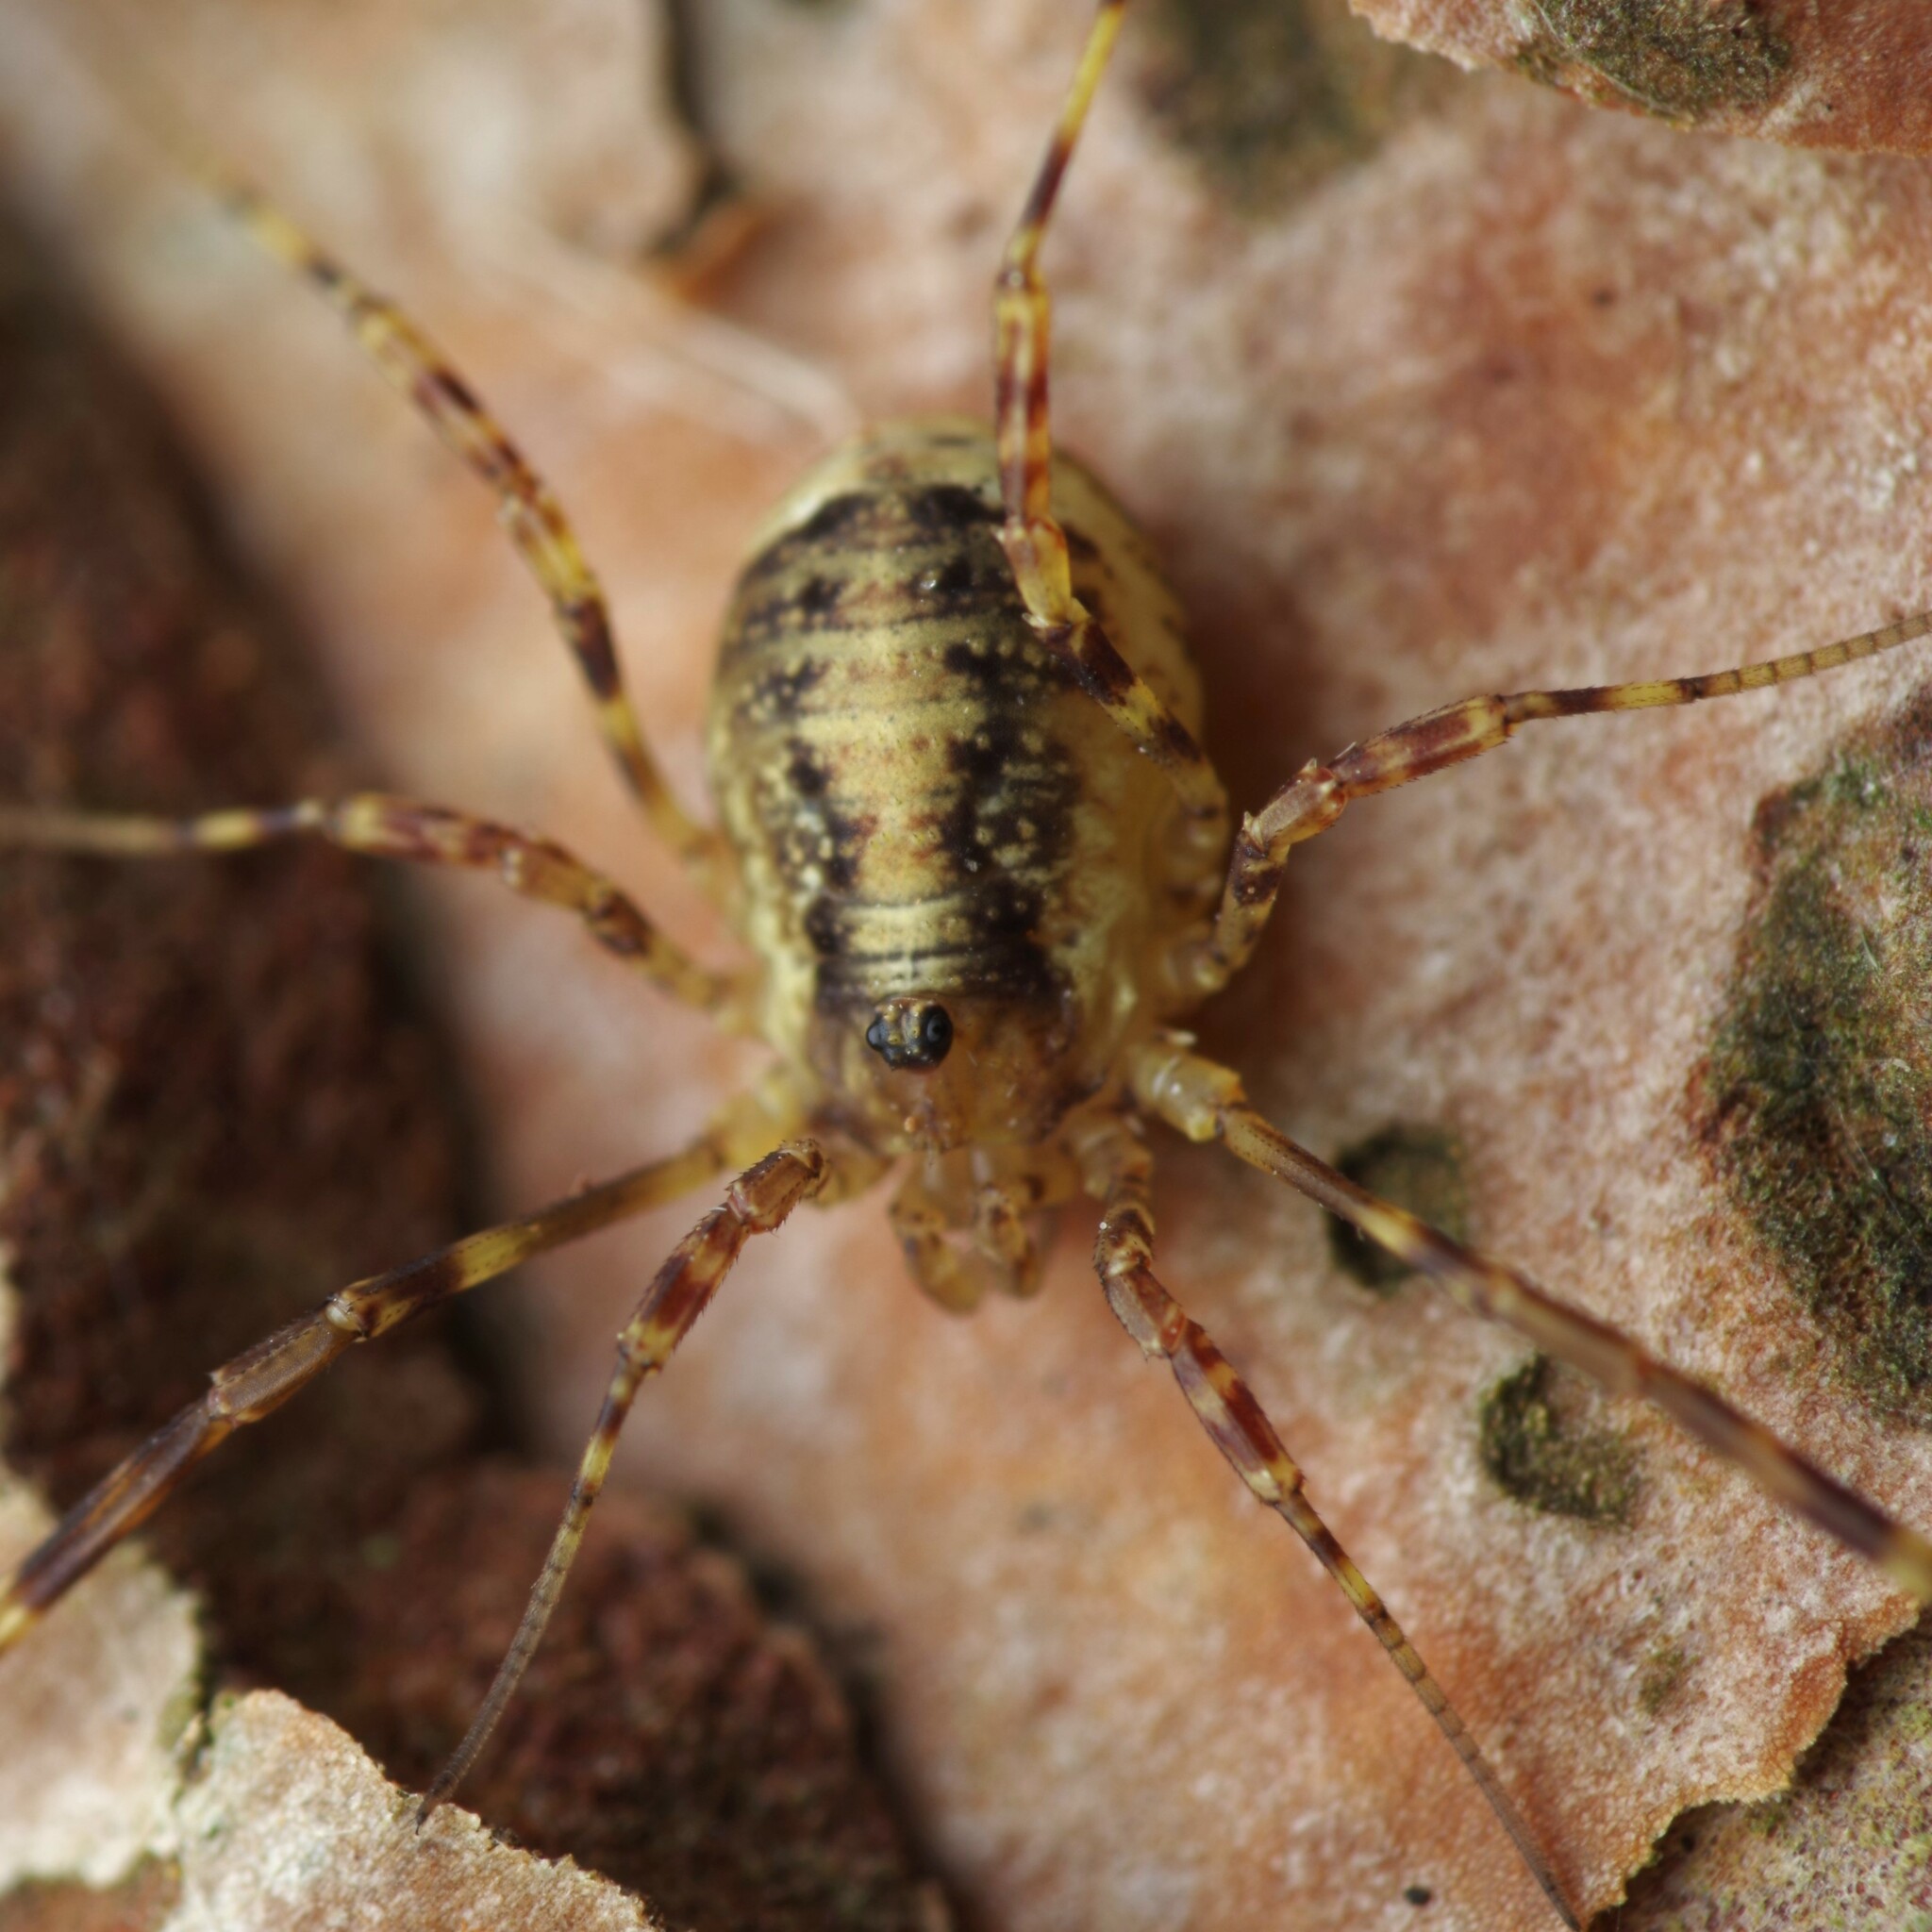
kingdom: Animalia
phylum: Arthropoda
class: Arachnida
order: Opiliones
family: Phalangiidae
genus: Oligolophus
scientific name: Oligolophus hansenii
